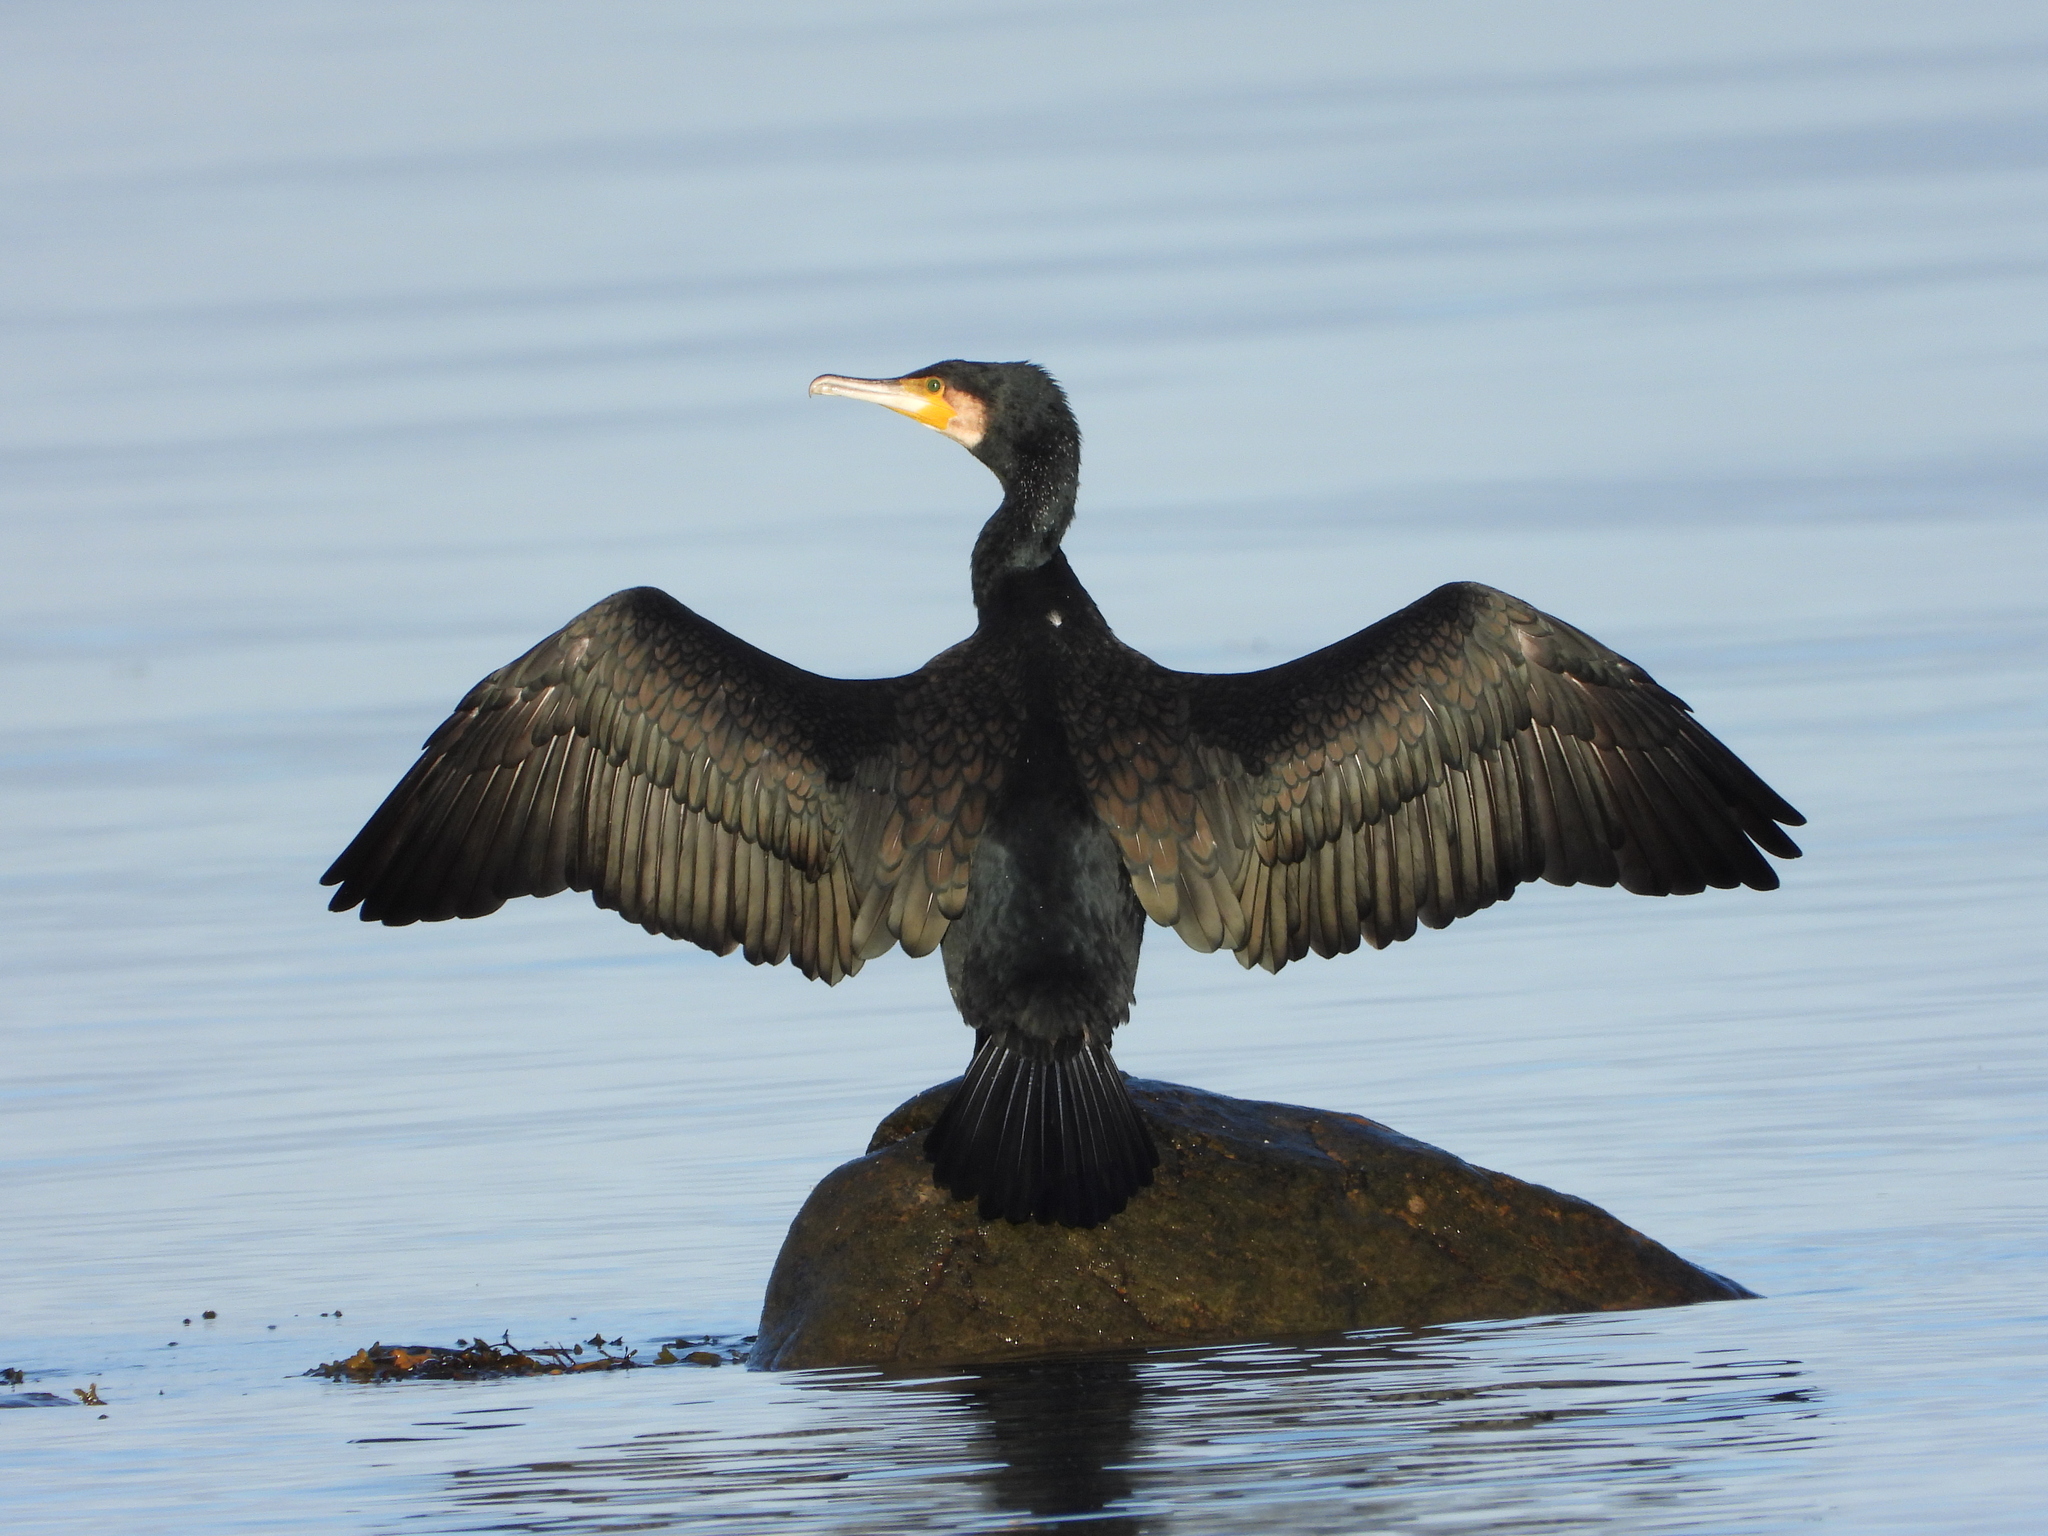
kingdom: Animalia
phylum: Chordata
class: Aves
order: Suliformes
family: Phalacrocoracidae
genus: Phalacrocorax
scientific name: Phalacrocorax carbo
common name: Great cormorant
